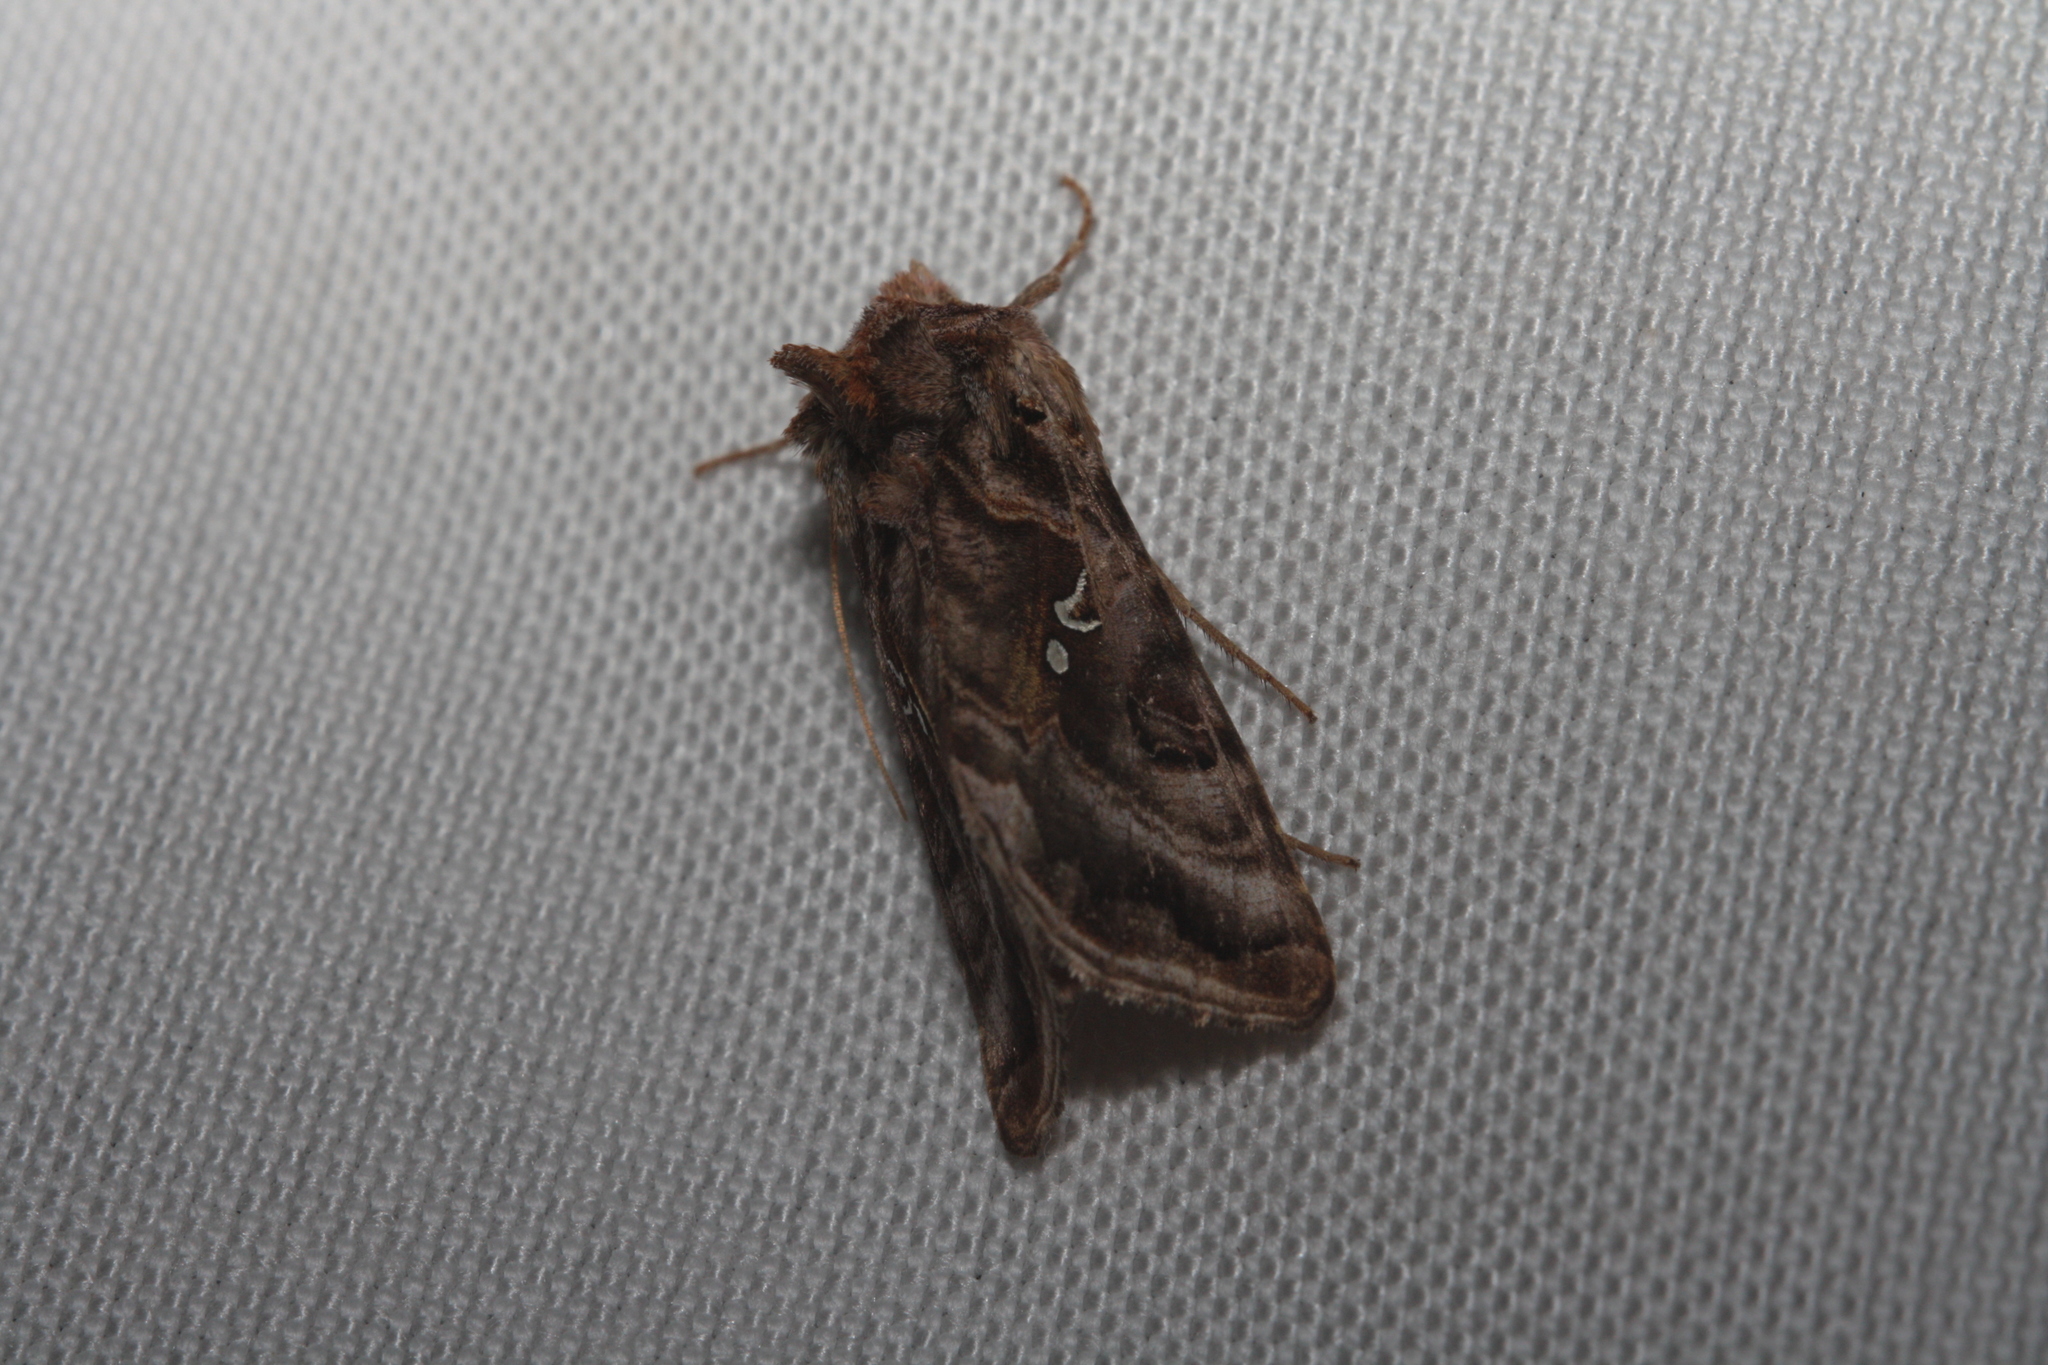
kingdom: Animalia
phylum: Arthropoda
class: Insecta
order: Lepidoptera
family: Noctuidae
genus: Autographa
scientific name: Autographa pulchrina
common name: Beautiful golden y
